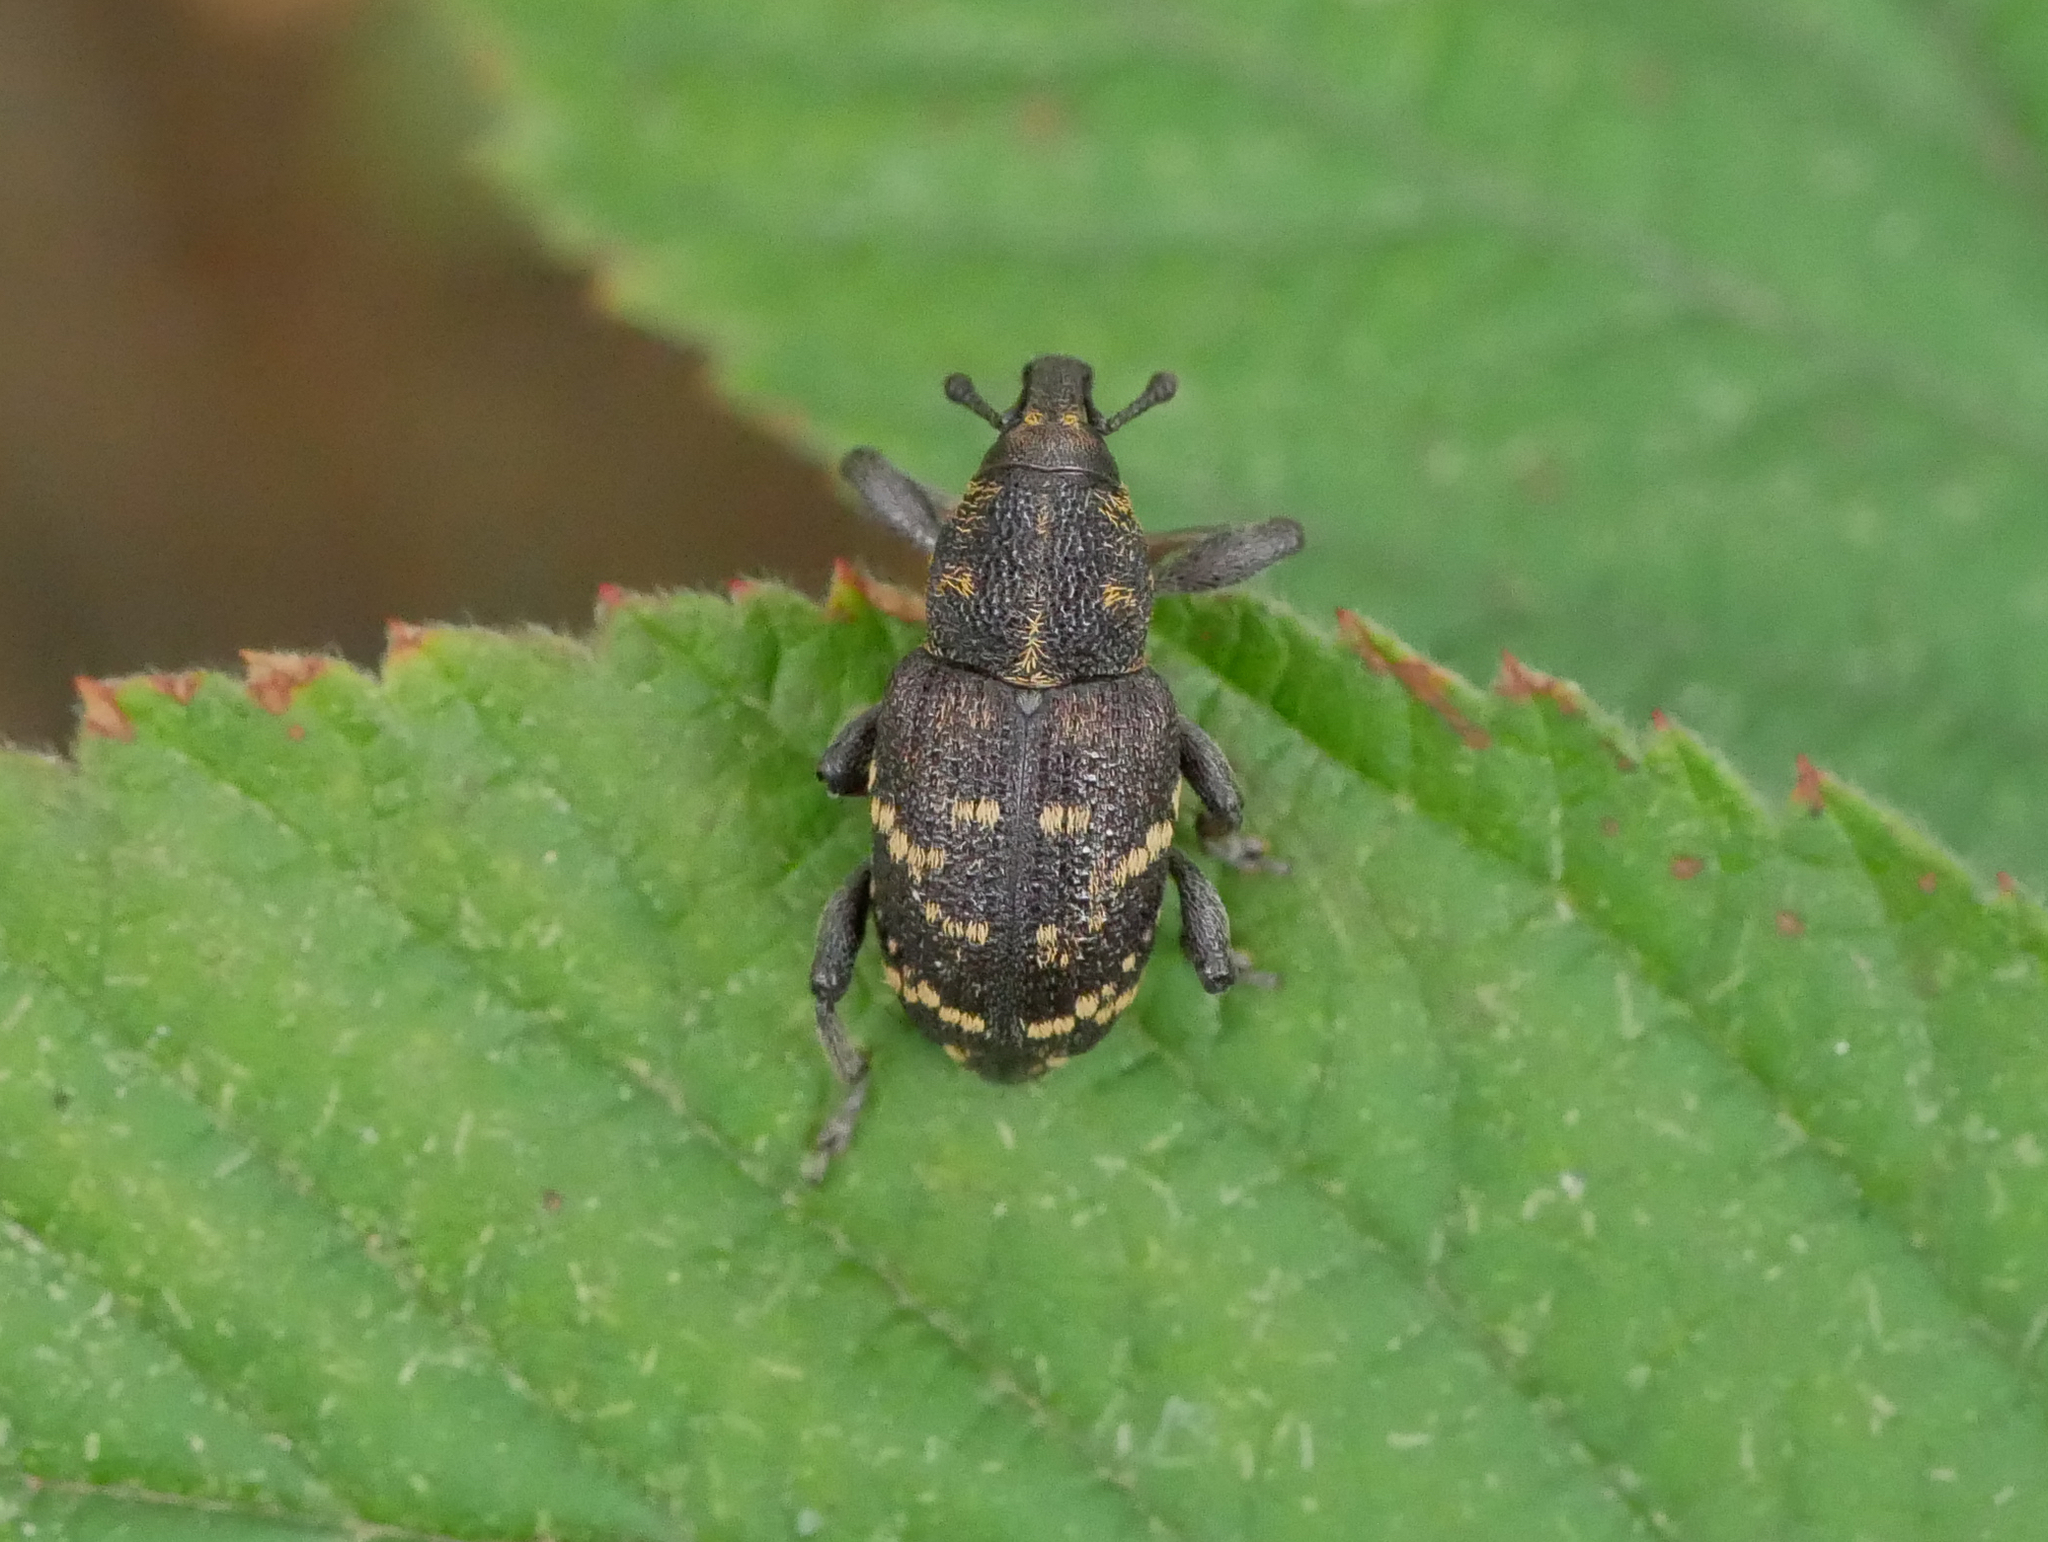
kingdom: Animalia
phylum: Arthropoda
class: Insecta
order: Coleoptera
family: Curculionidae
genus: Hylobius
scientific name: Hylobius abietis
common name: Large pine weevil
